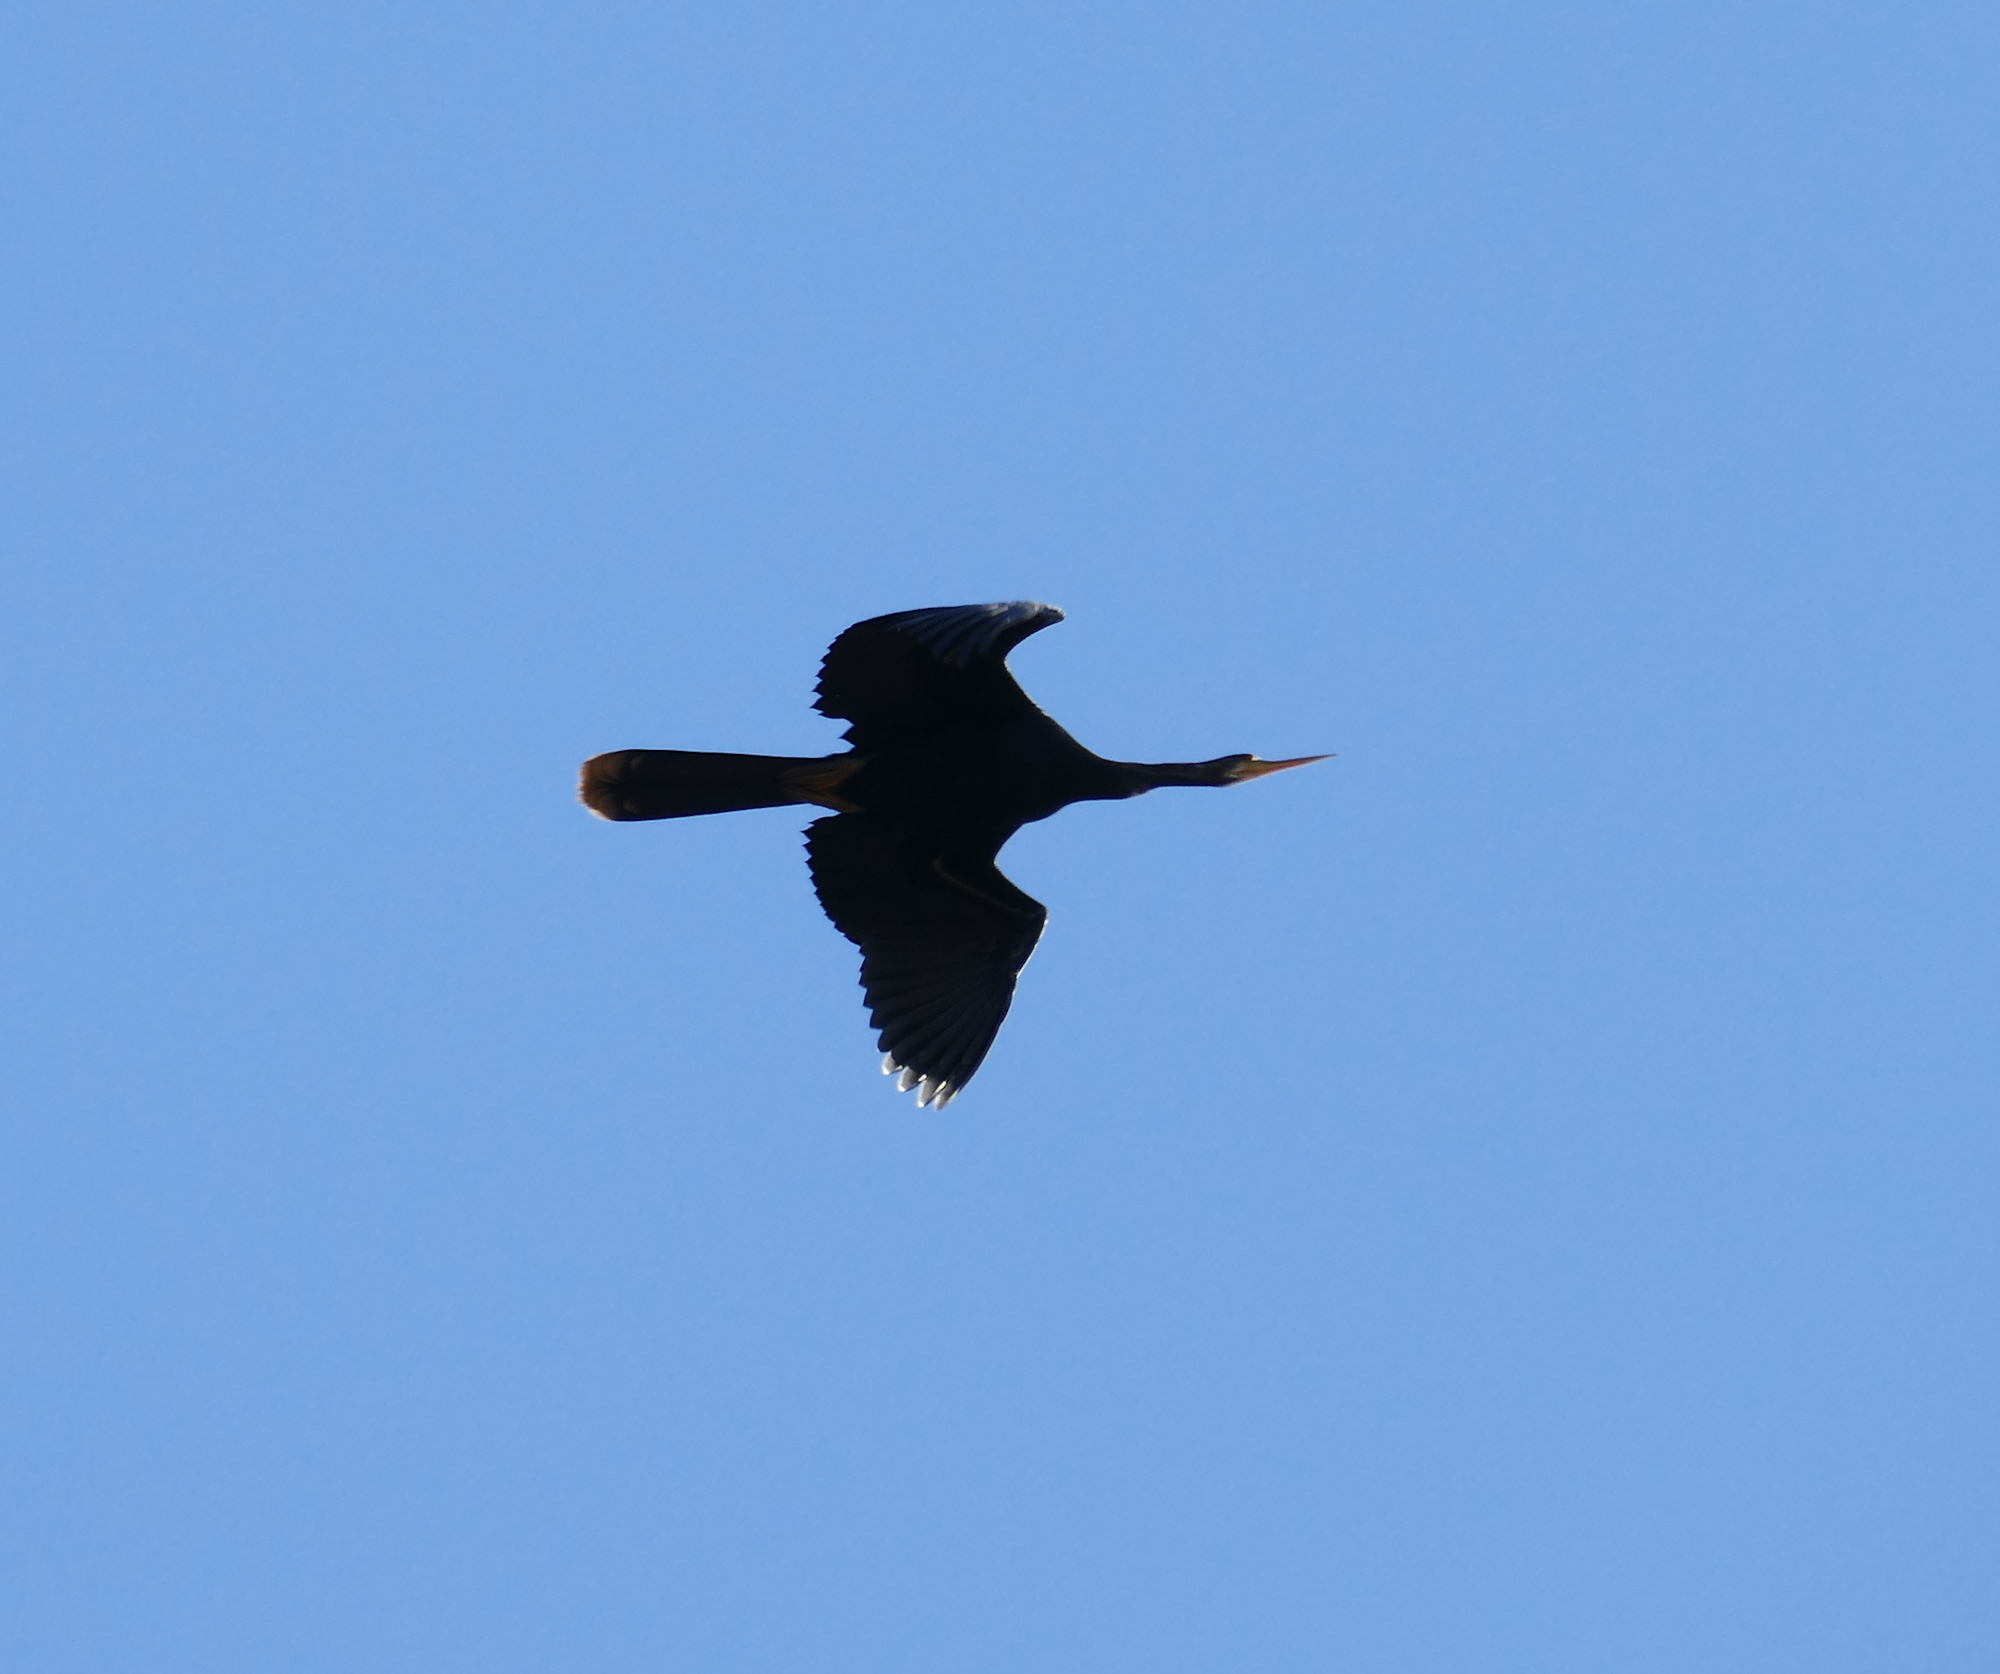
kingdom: Animalia
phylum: Chordata
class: Aves
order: Suliformes
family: Anhingidae
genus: Anhinga
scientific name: Anhinga anhinga
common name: Anhinga
